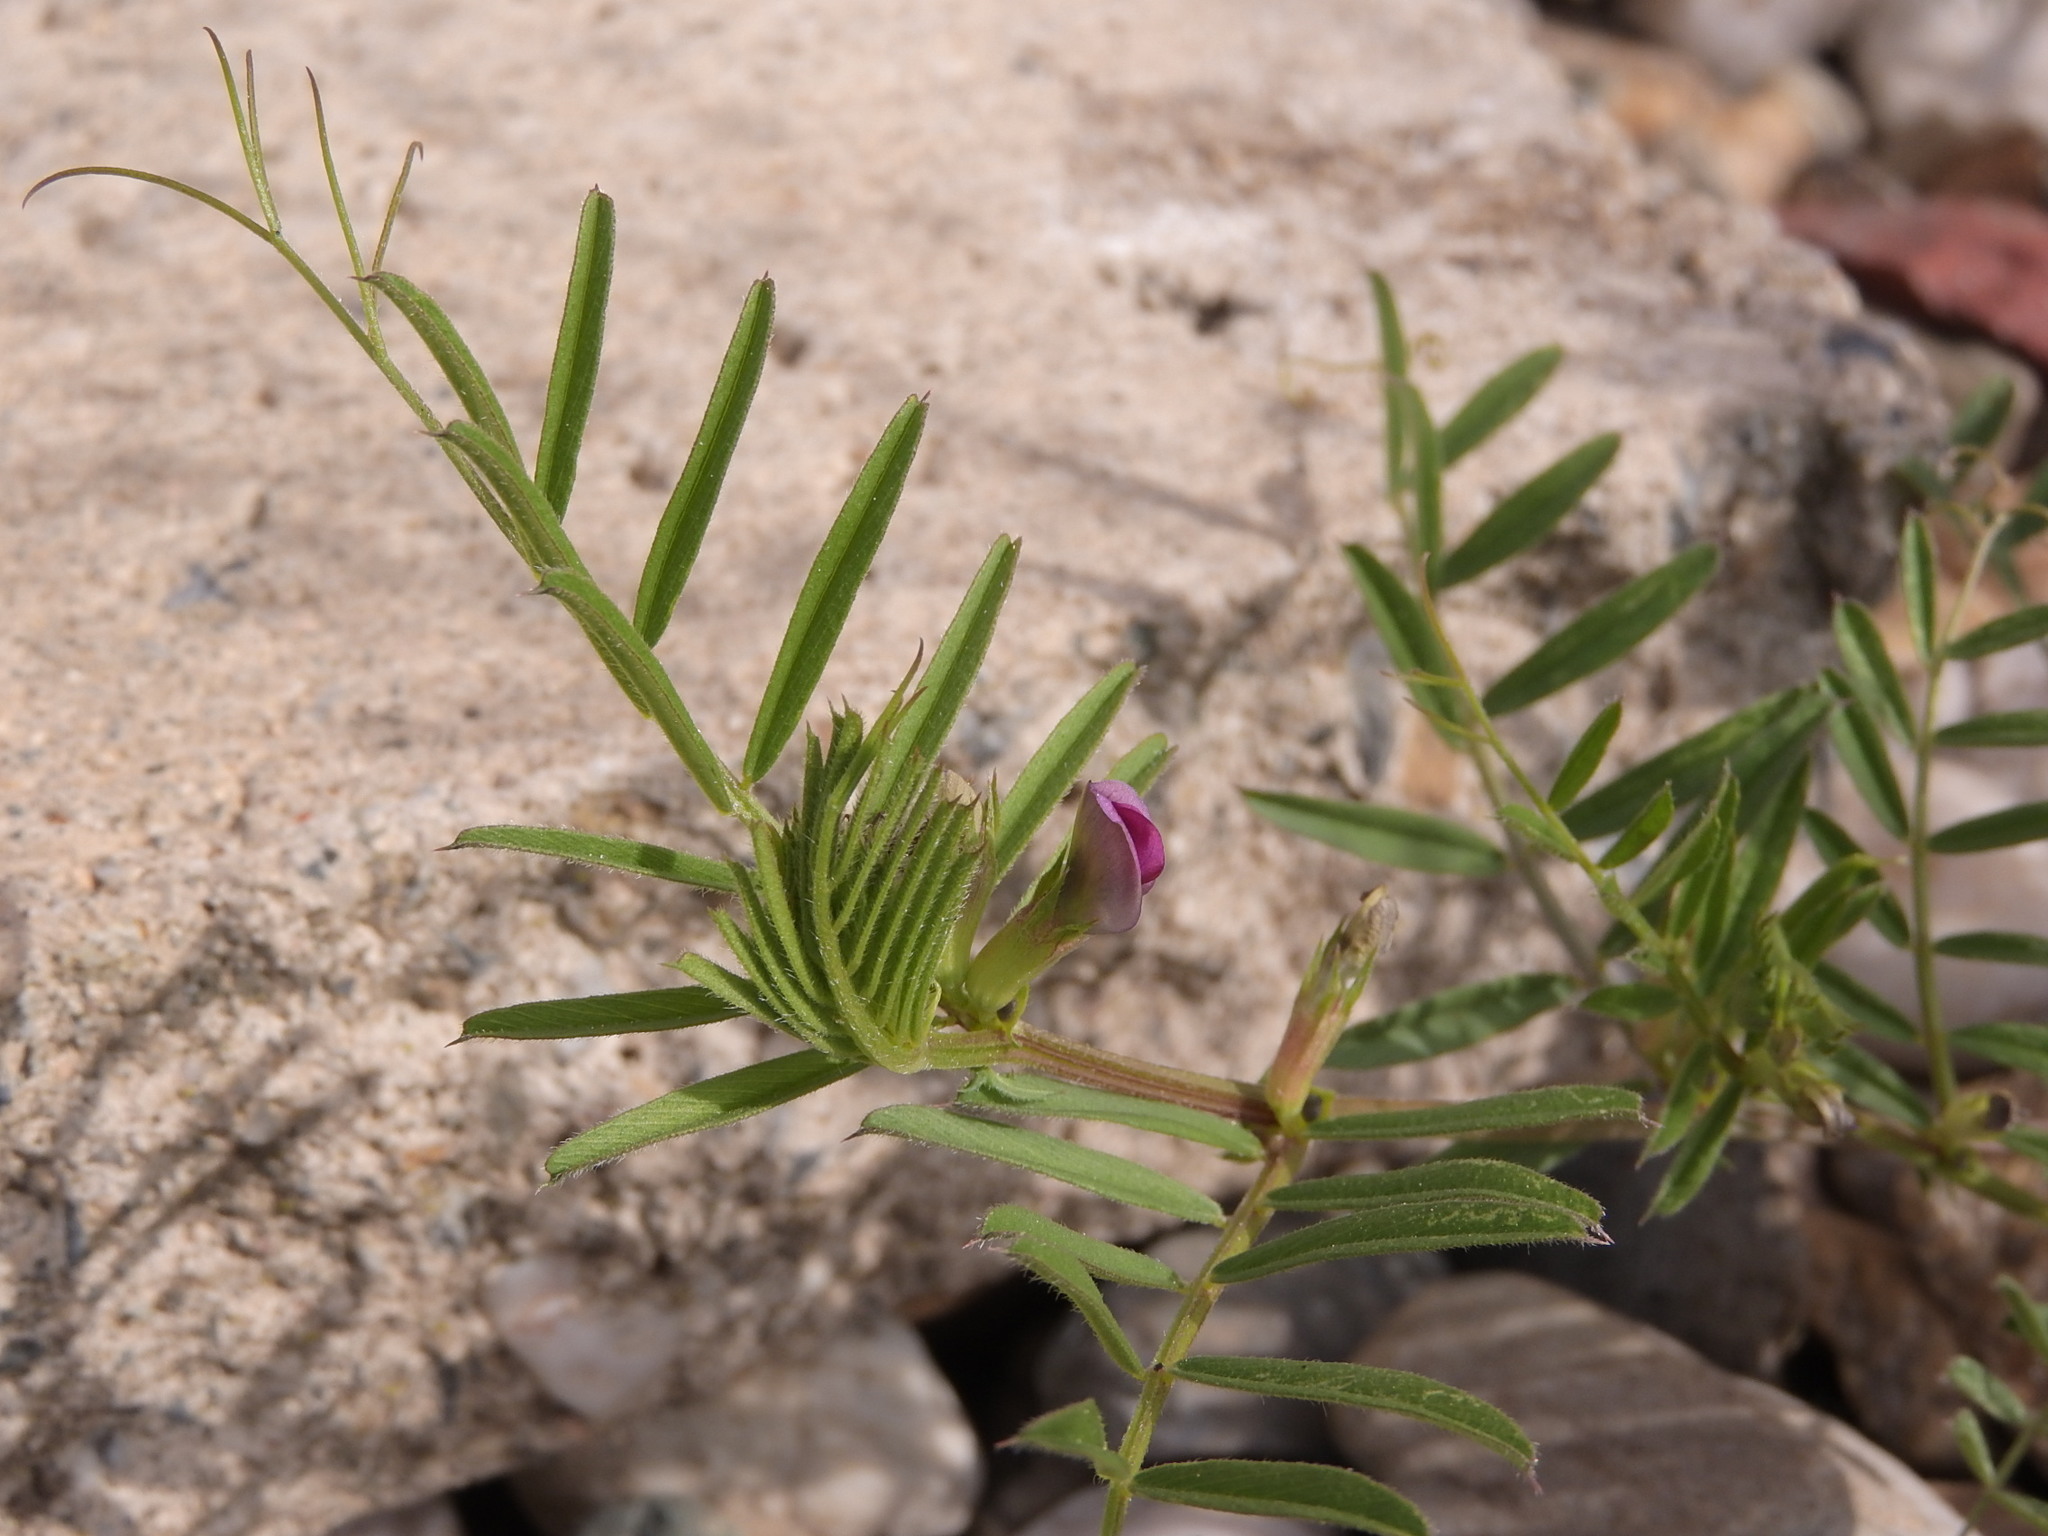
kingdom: Plantae
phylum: Tracheophyta
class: Magnoliopsida
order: Fabales
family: Fabaceae
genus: Vicia
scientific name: Vicia sativa
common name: Garden vetch
